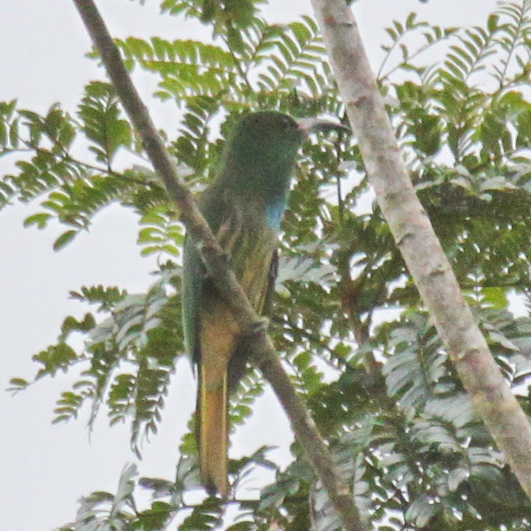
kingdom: Animalia
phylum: Chordata
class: Aves
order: Coraciiformes
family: Meropidae
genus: Nyctyornis
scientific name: Nyctyornis athertoni
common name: Blue-bearded bee-eater
